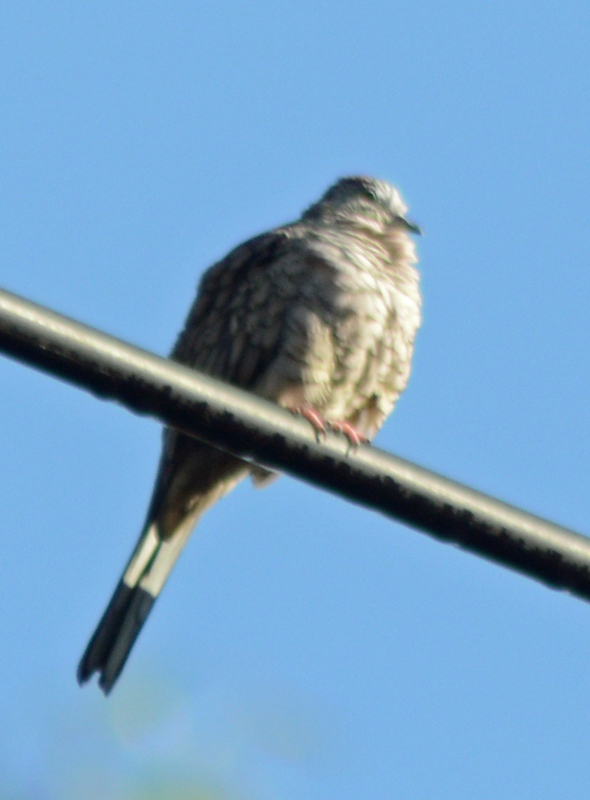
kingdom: Animalia
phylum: Chordata
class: Aves
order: Columbiformes
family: Columbidae
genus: Columbina
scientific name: Columbina inca
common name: Inca dove
